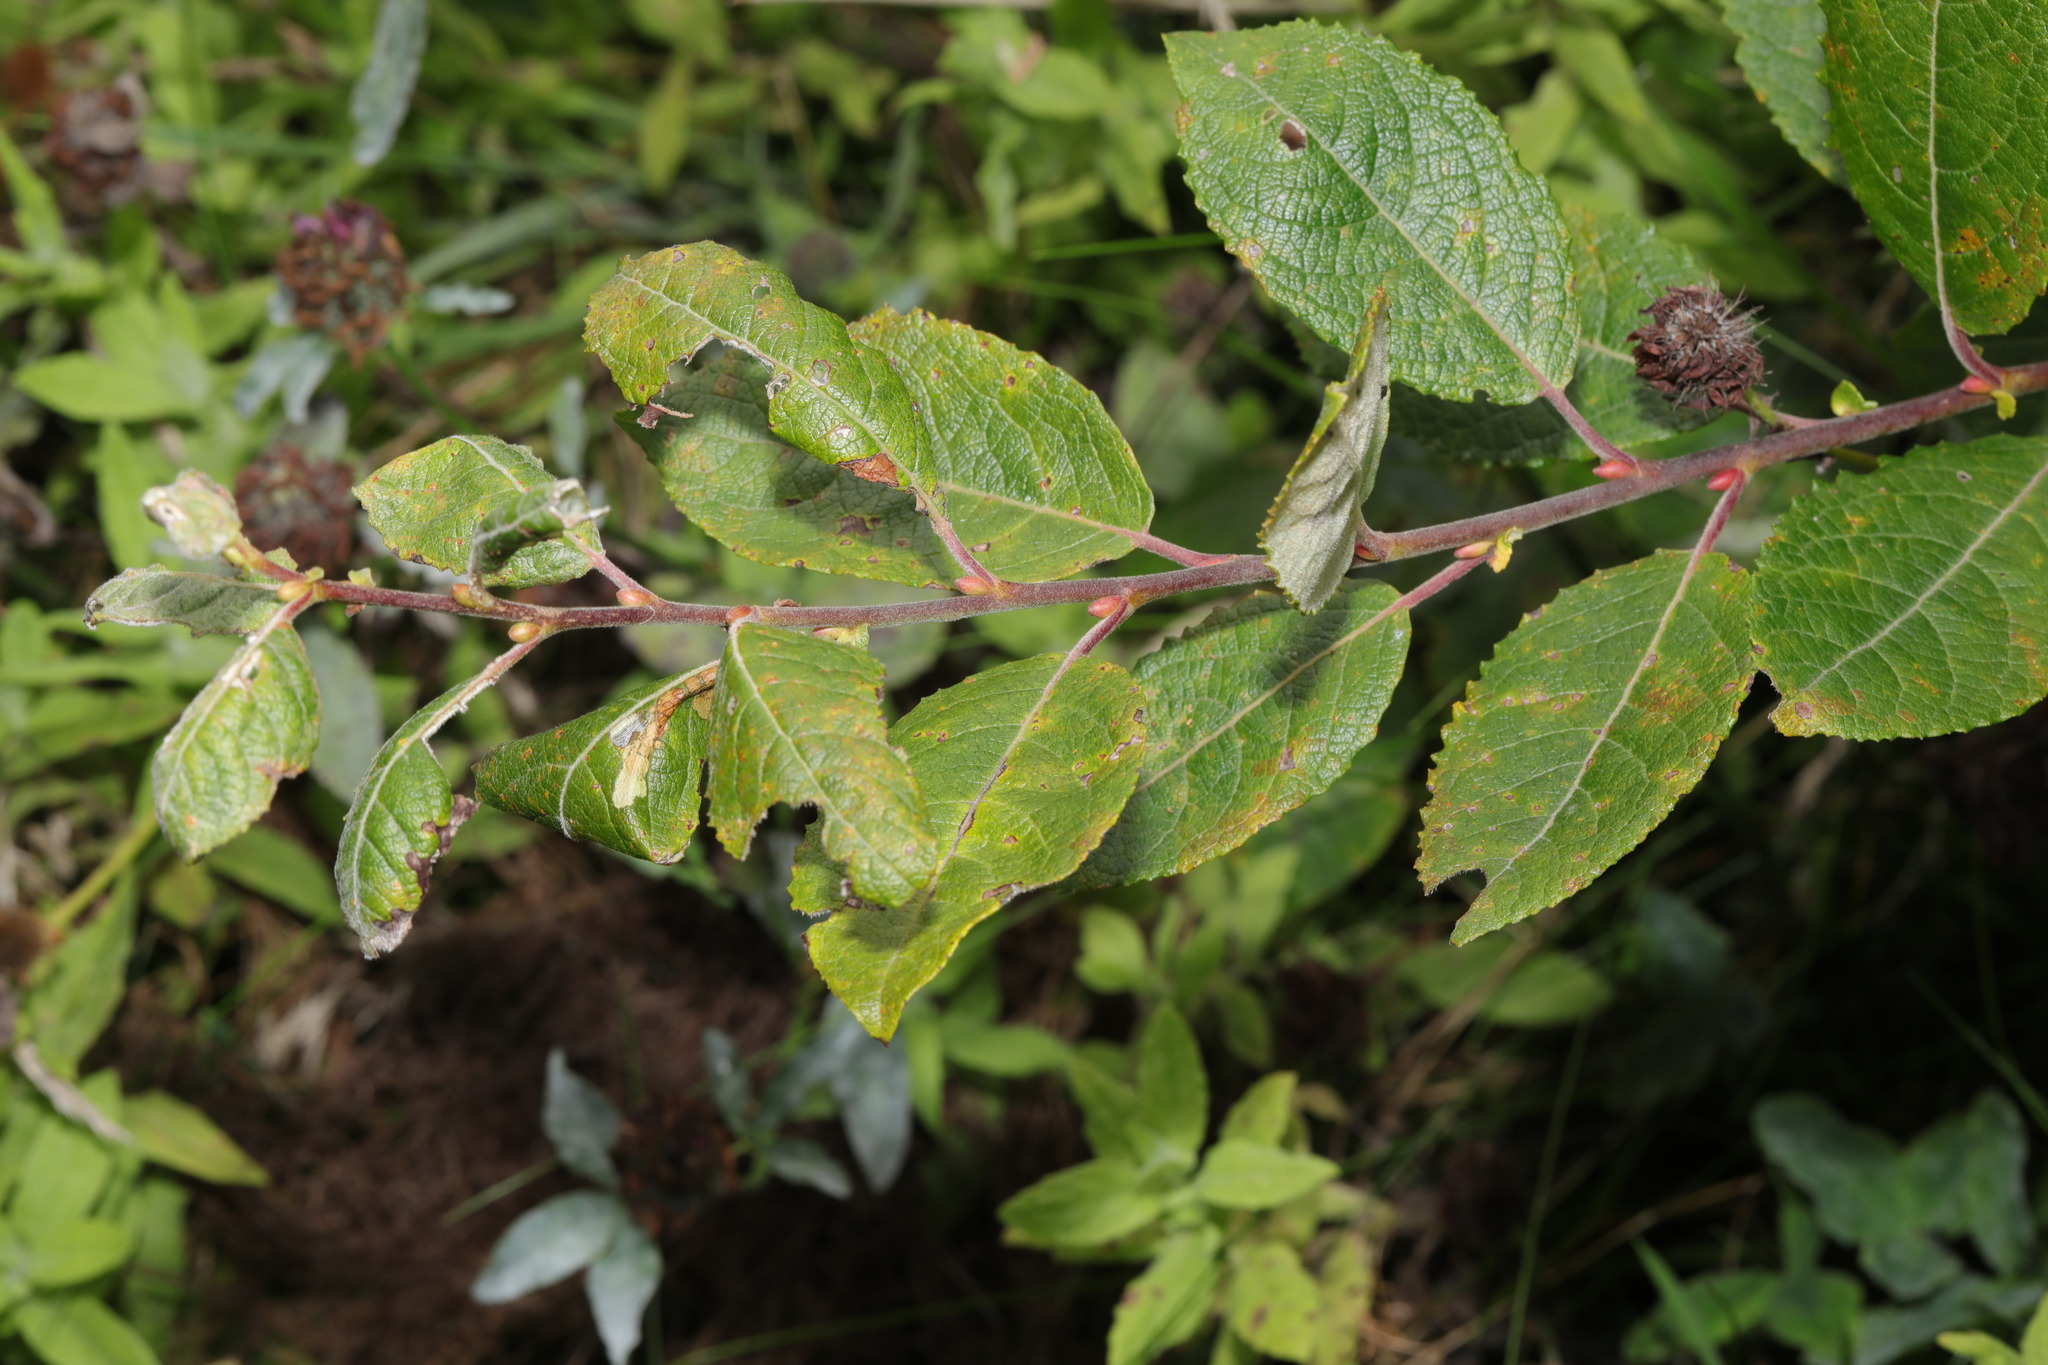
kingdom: Plantae
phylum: Tracheophyta
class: Magnoliopsida
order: Malpighiales
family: Salicaceae
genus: Salix
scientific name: Salix caprea
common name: Goat willow
